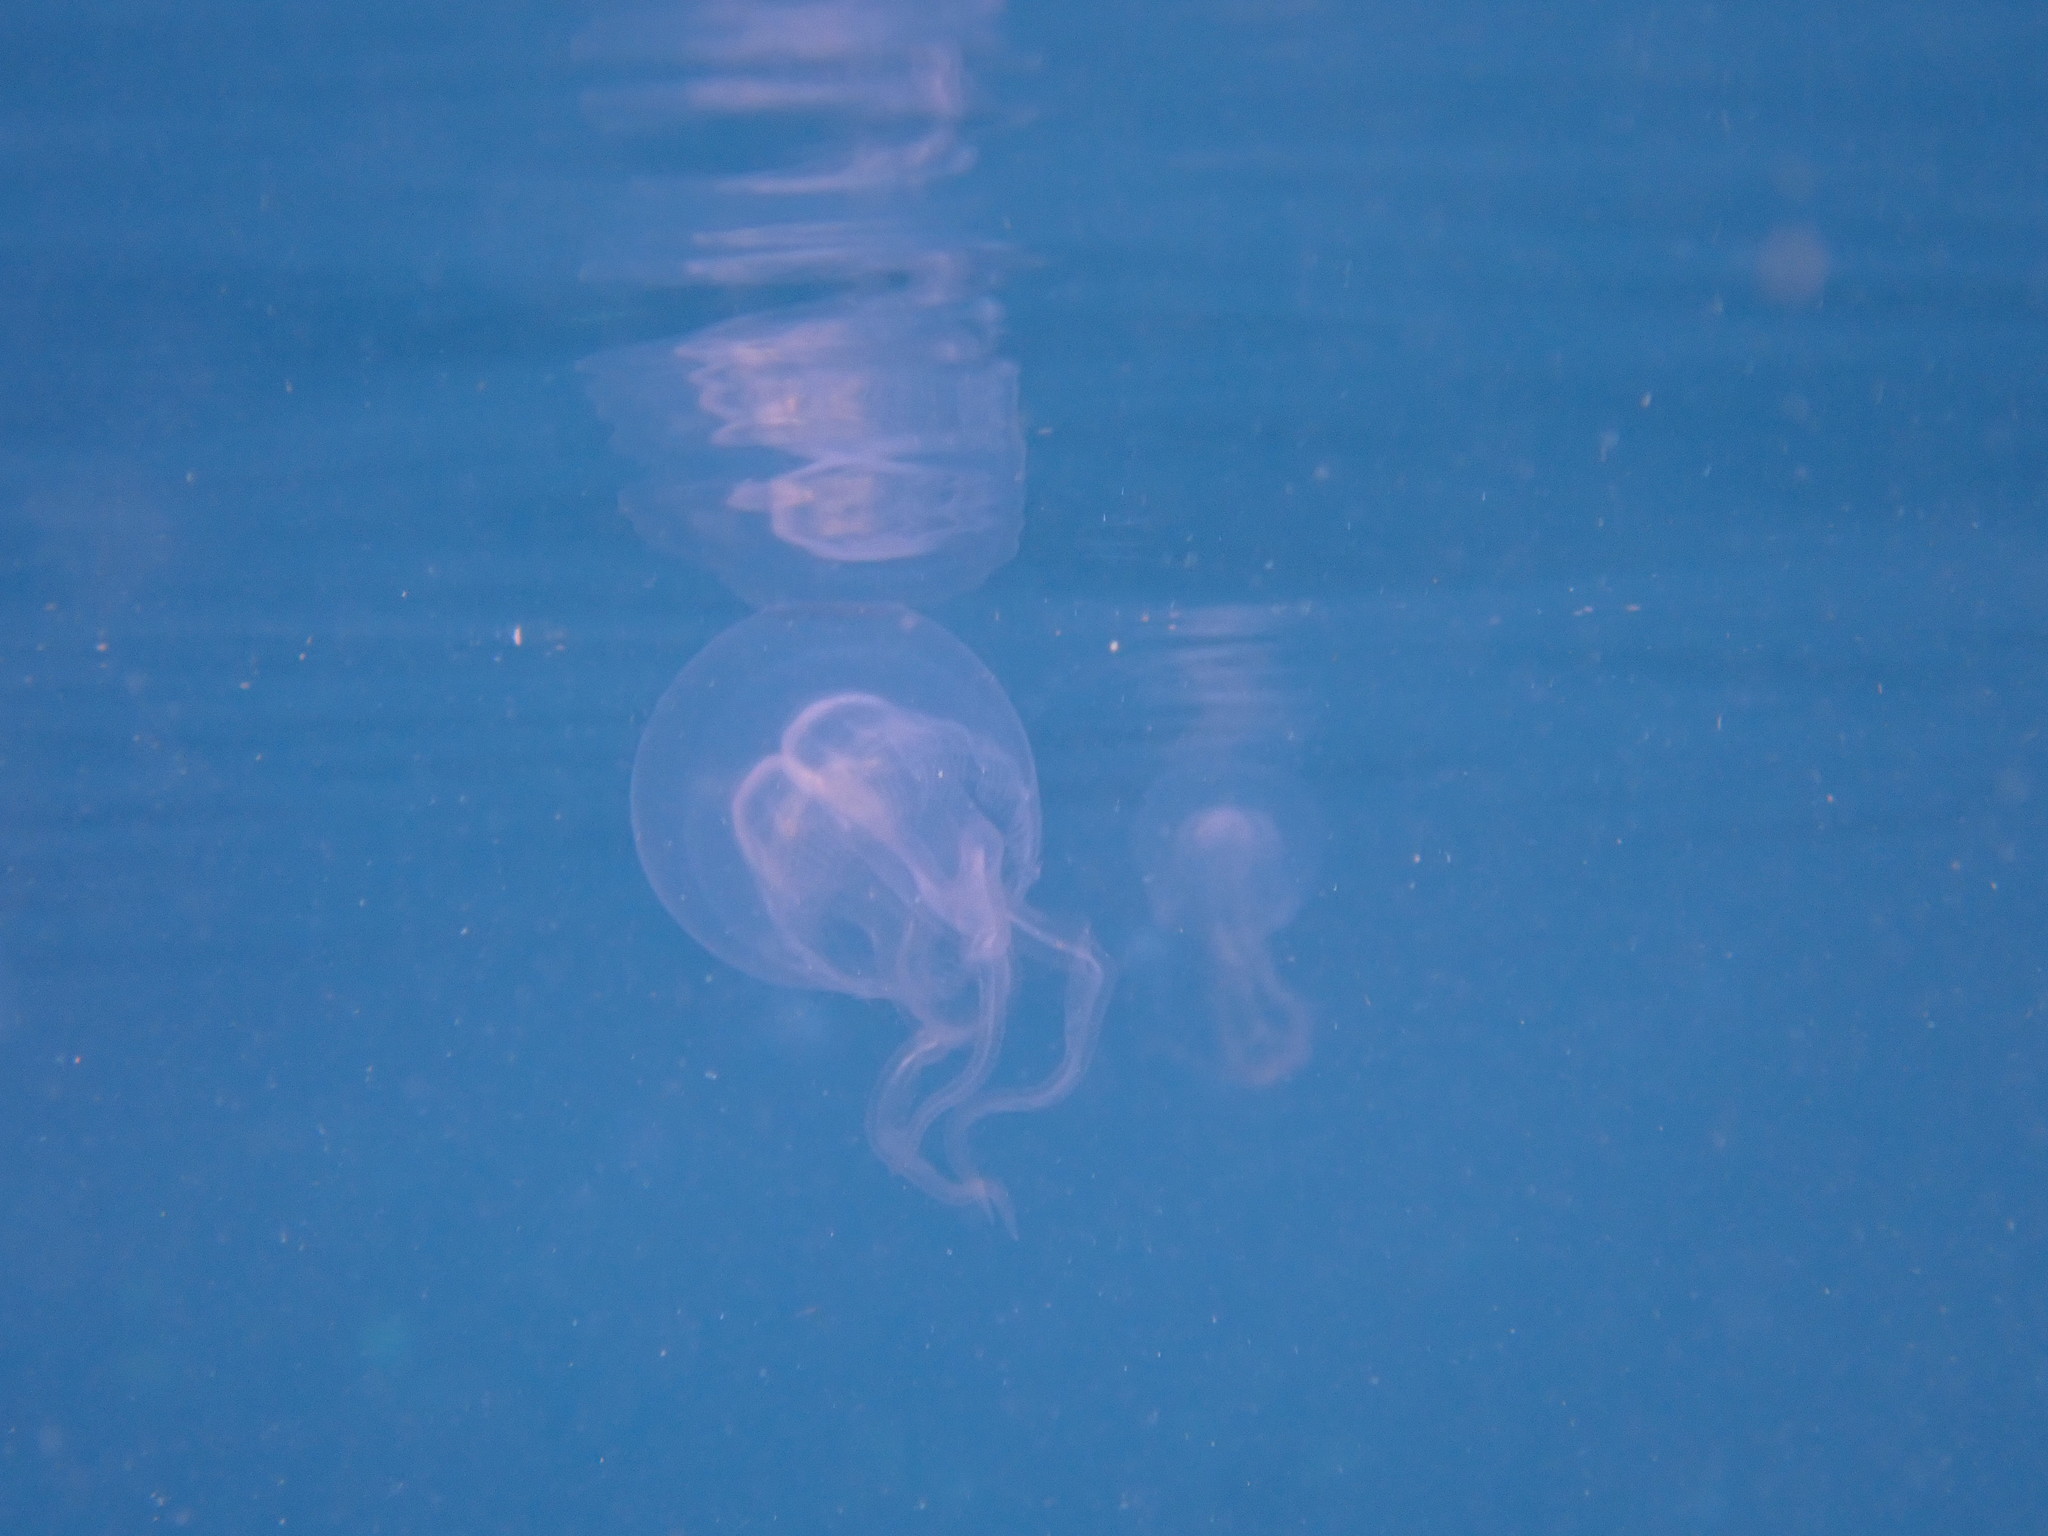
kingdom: Animalia
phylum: Cnidaria
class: Scyphozoa
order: Semaeostomeae
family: Ulmaridae
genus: Stellamedusa
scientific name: Stellamedusa ventana
